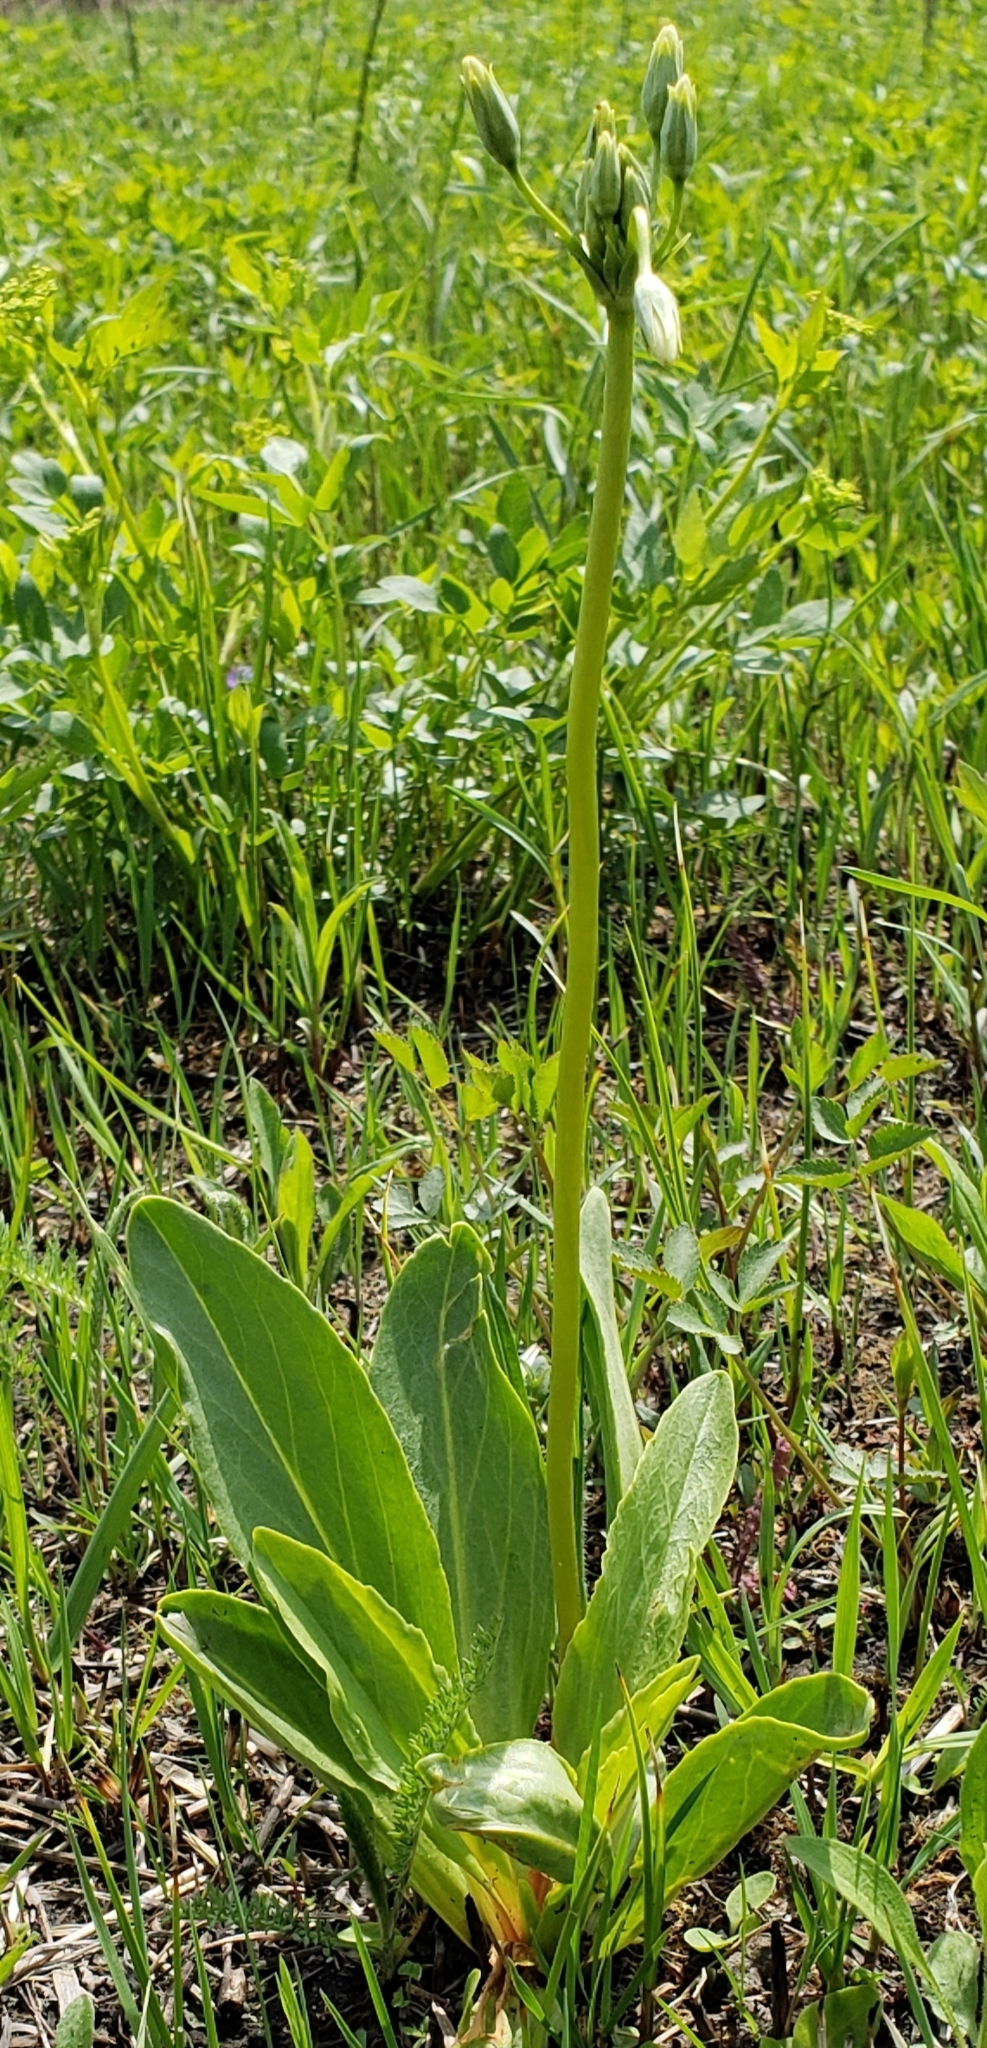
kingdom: Plantae
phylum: Tracheophyta
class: Magnoliopsida
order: Ericales
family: Primulaceae
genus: Dodecatheon
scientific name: Dodecatheon meadia
